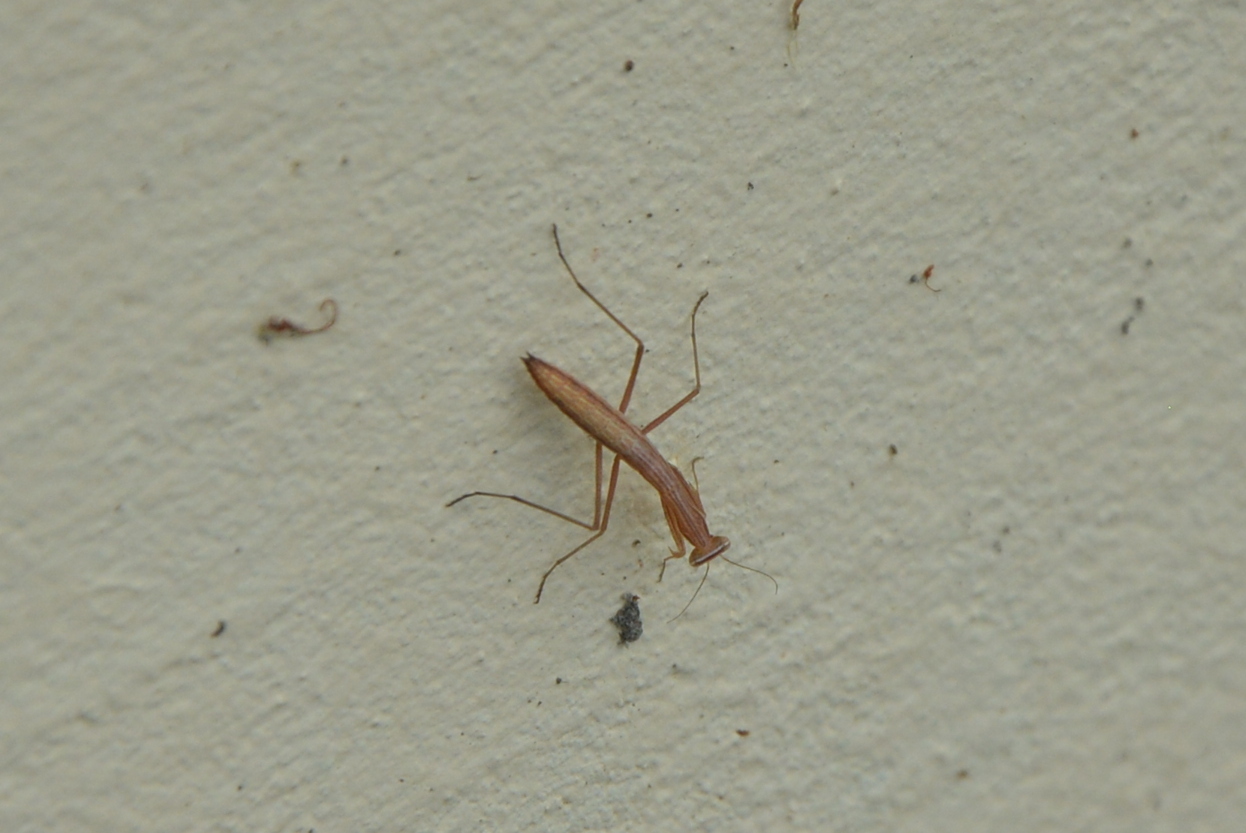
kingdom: Animalia
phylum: Arthropoda
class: Insecta
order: Mantodea
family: Mantidae
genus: Mantis
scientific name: Mantis religiosa
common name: Praying mantis
